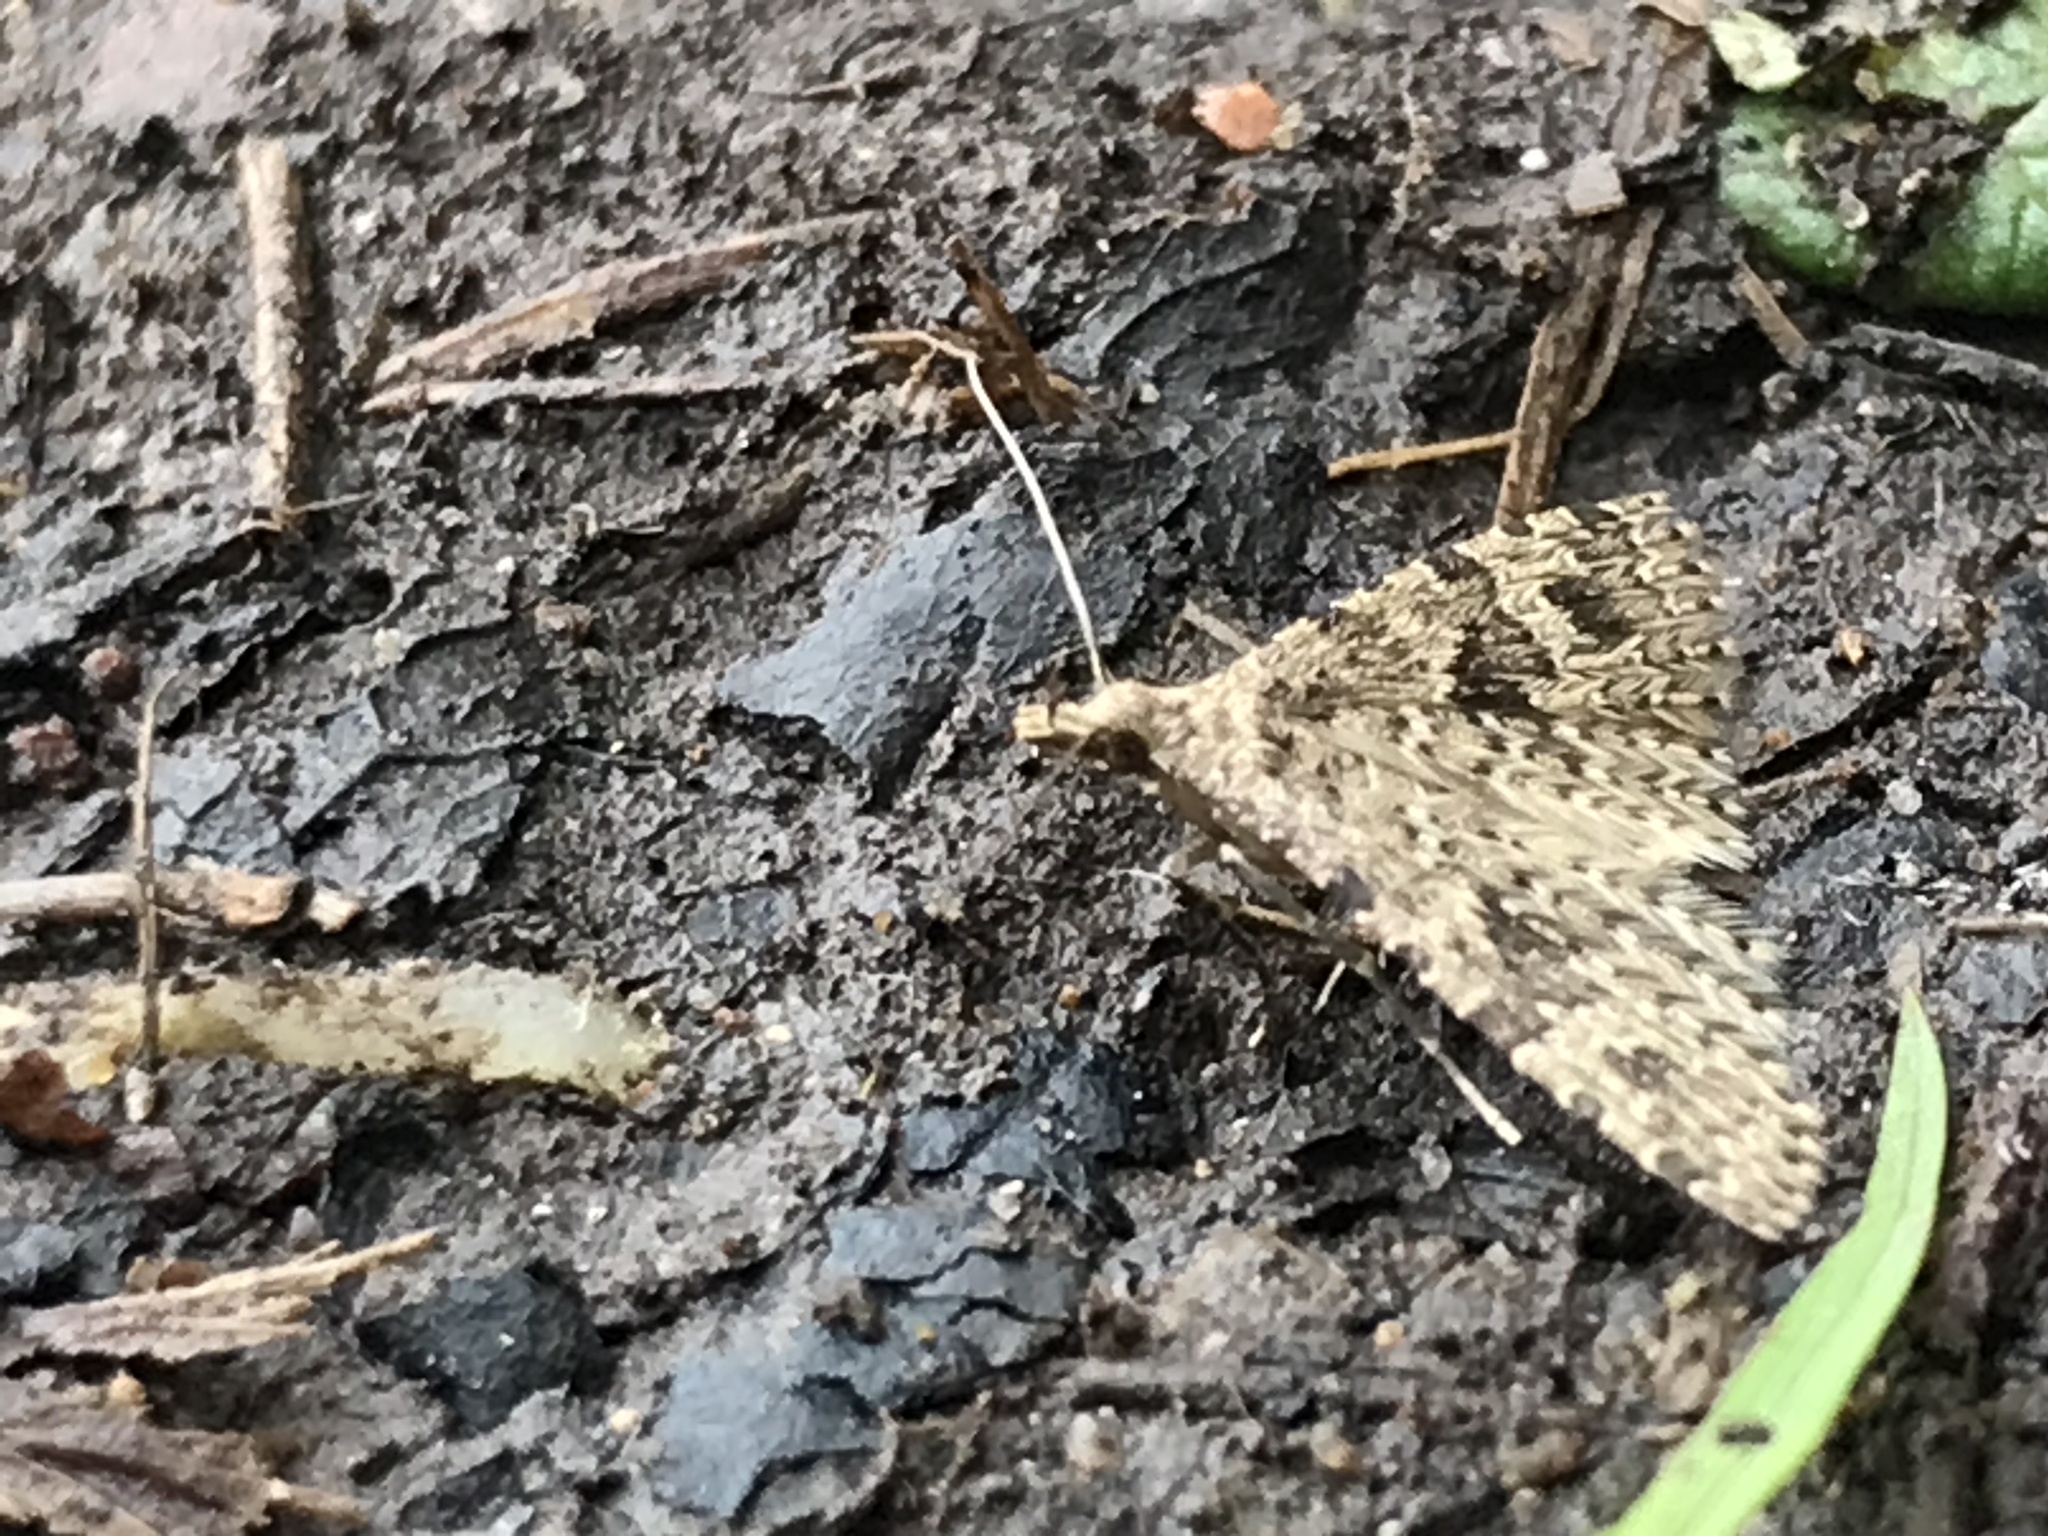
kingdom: Animalia
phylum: Arthropoda
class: Insecta
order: Lepidoptera
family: Alucitidae
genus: Alucita
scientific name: Alucita hexadactyla
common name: Twenty-plume moth
